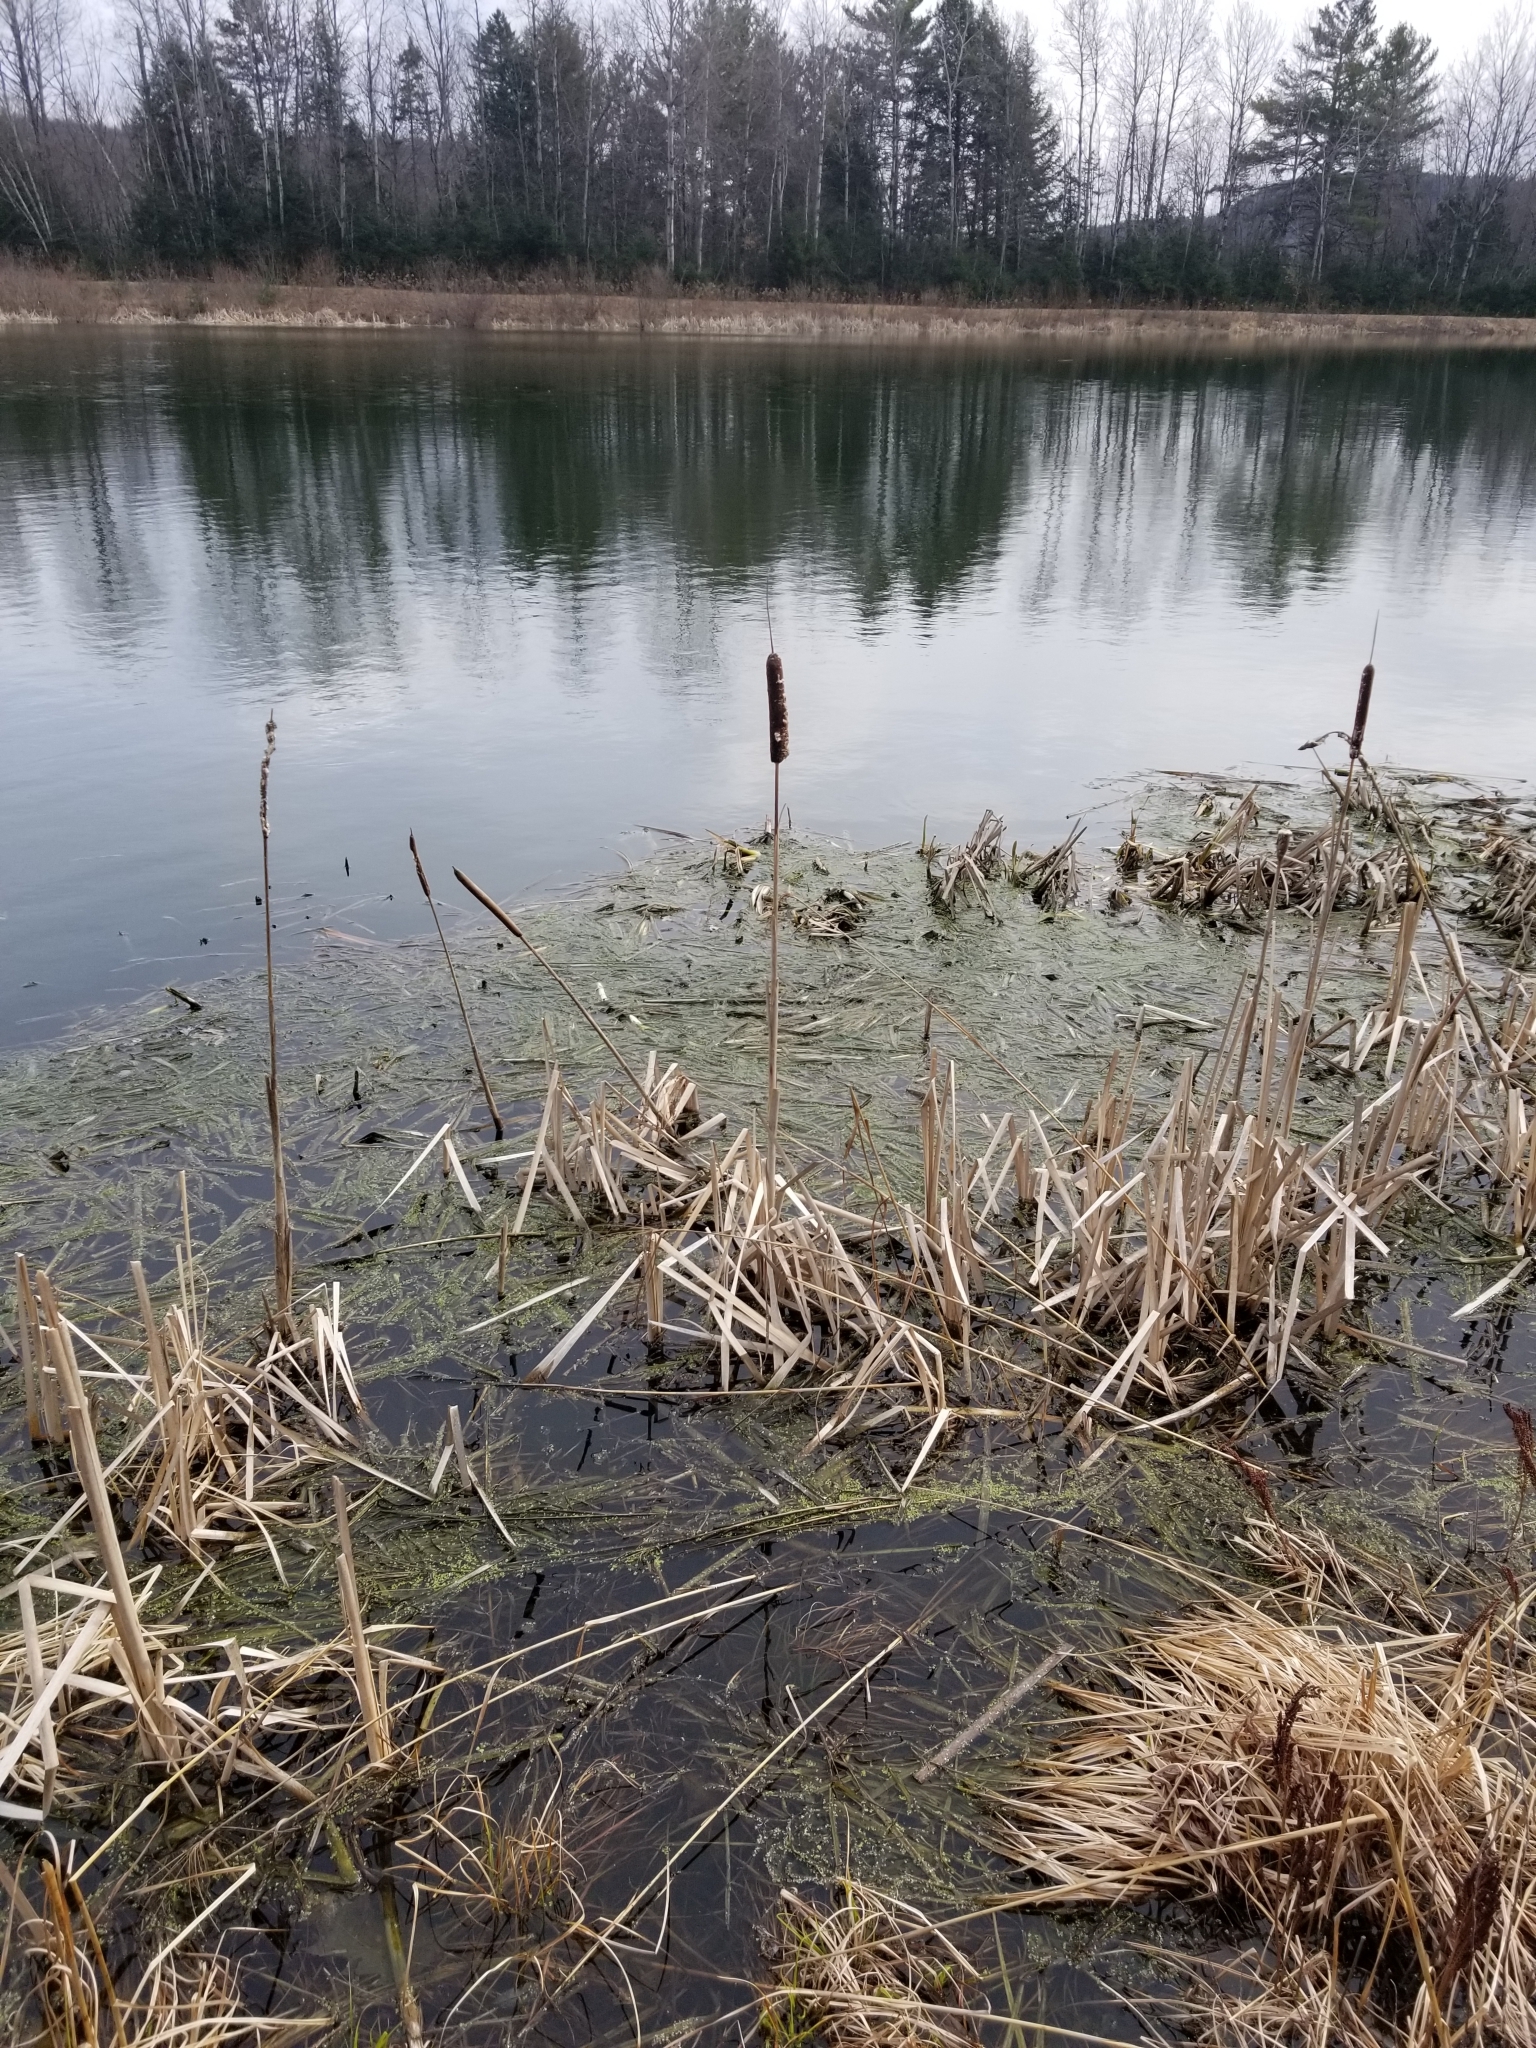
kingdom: Plantae
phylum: Tracheophyta
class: Liliopsida
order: Poales
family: Typhaceae
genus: Typha
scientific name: Typha latifolia
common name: Broadleaf cattail
